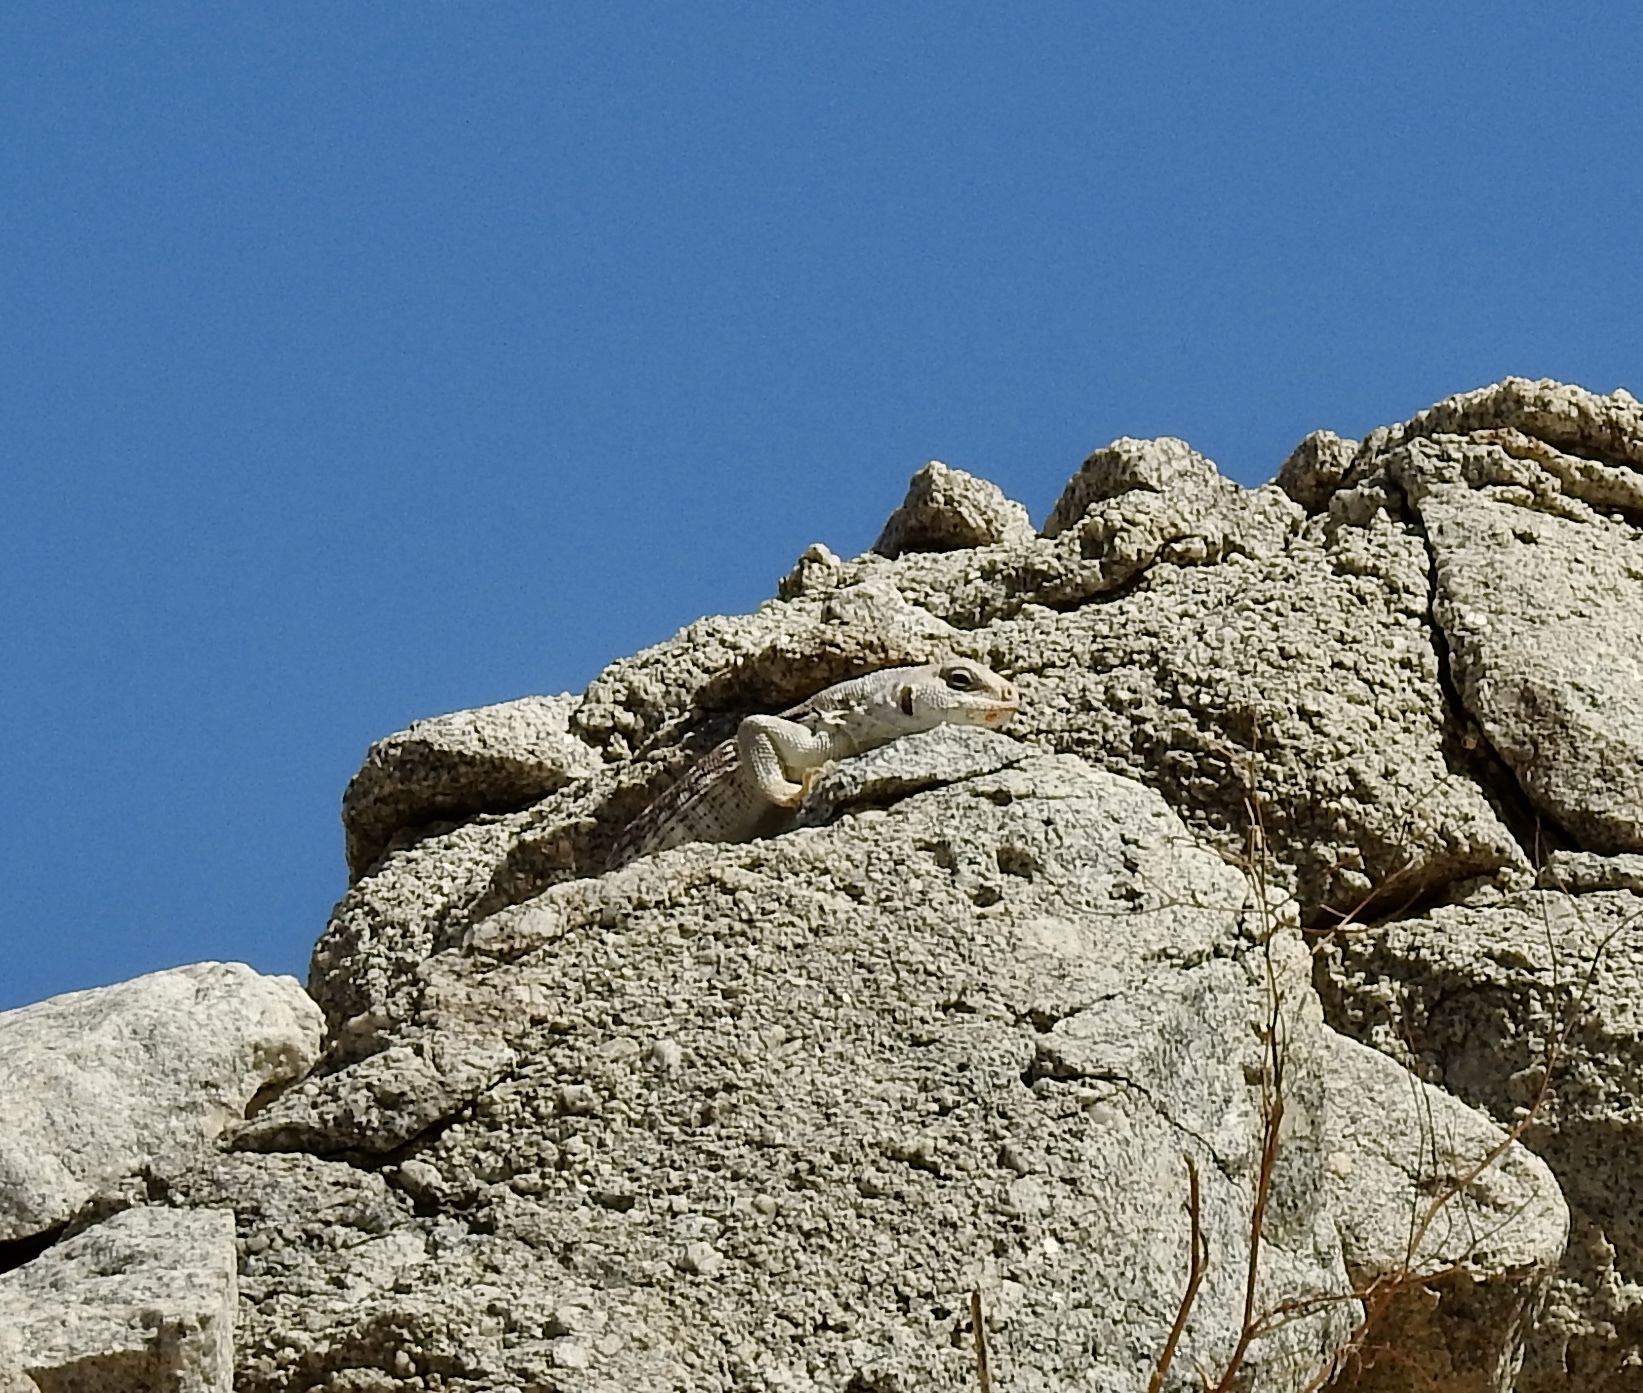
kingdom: Animalia
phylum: Chordata
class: Squamata
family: Iguanidae
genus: Dipsosaurus
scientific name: Dipsosaurus dorsalis
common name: Desert iguana
